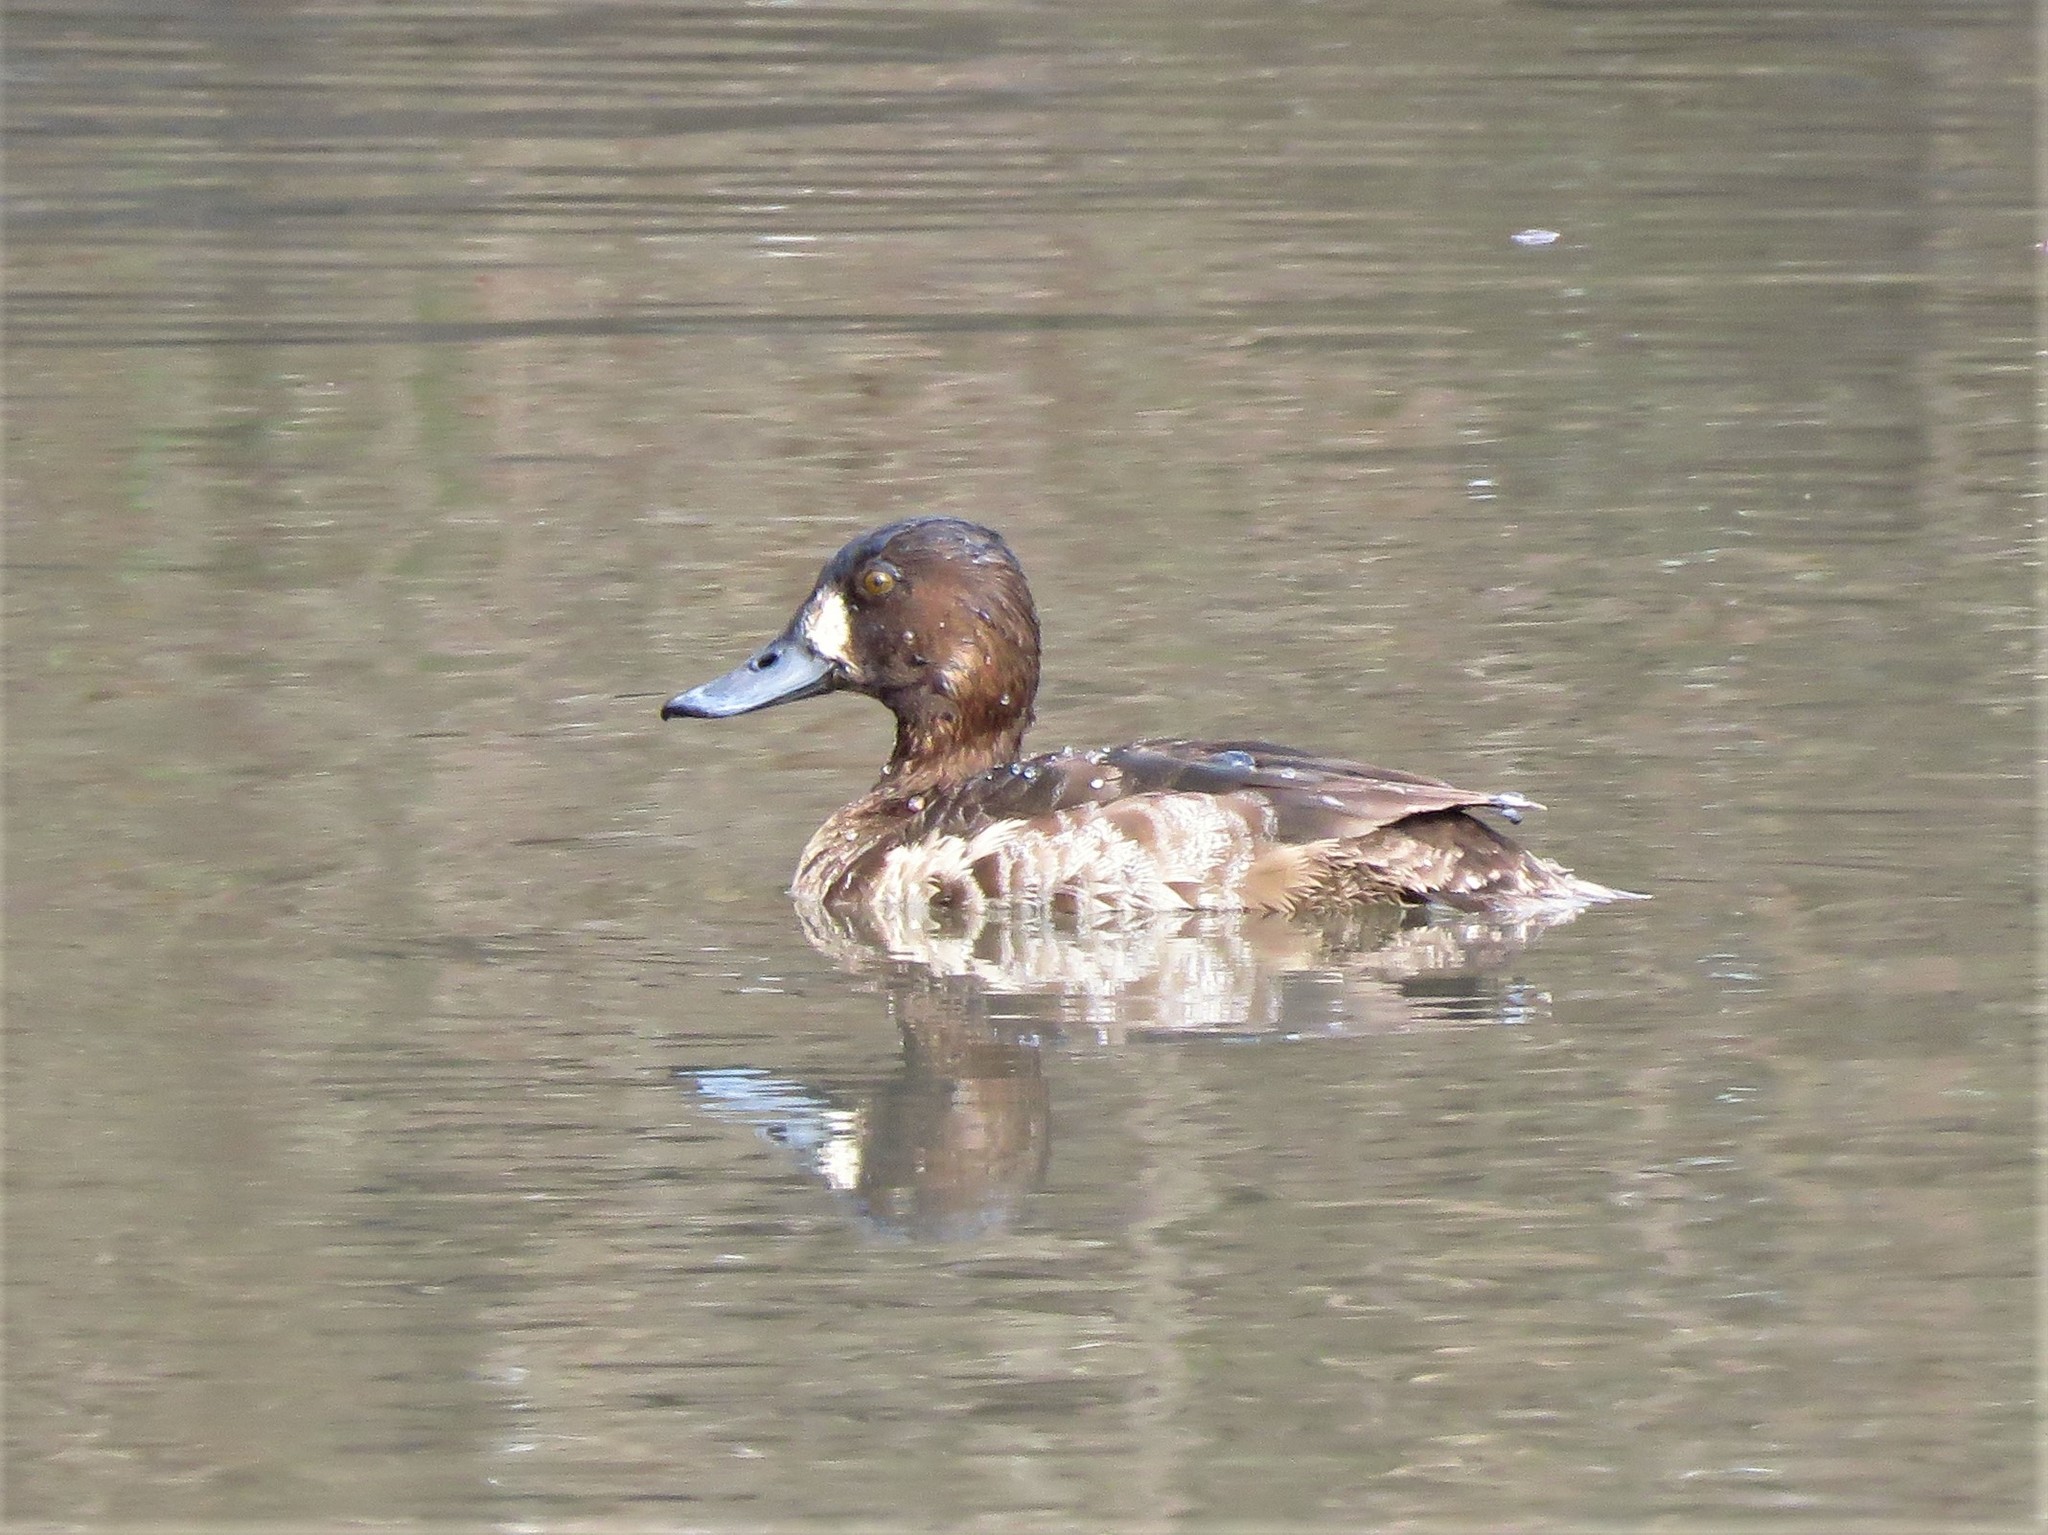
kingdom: Animalia
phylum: Chordata
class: Aves
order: Anseriformes
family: Anatidae
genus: Aythya
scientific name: Aythya affinis
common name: Lesser scaup
